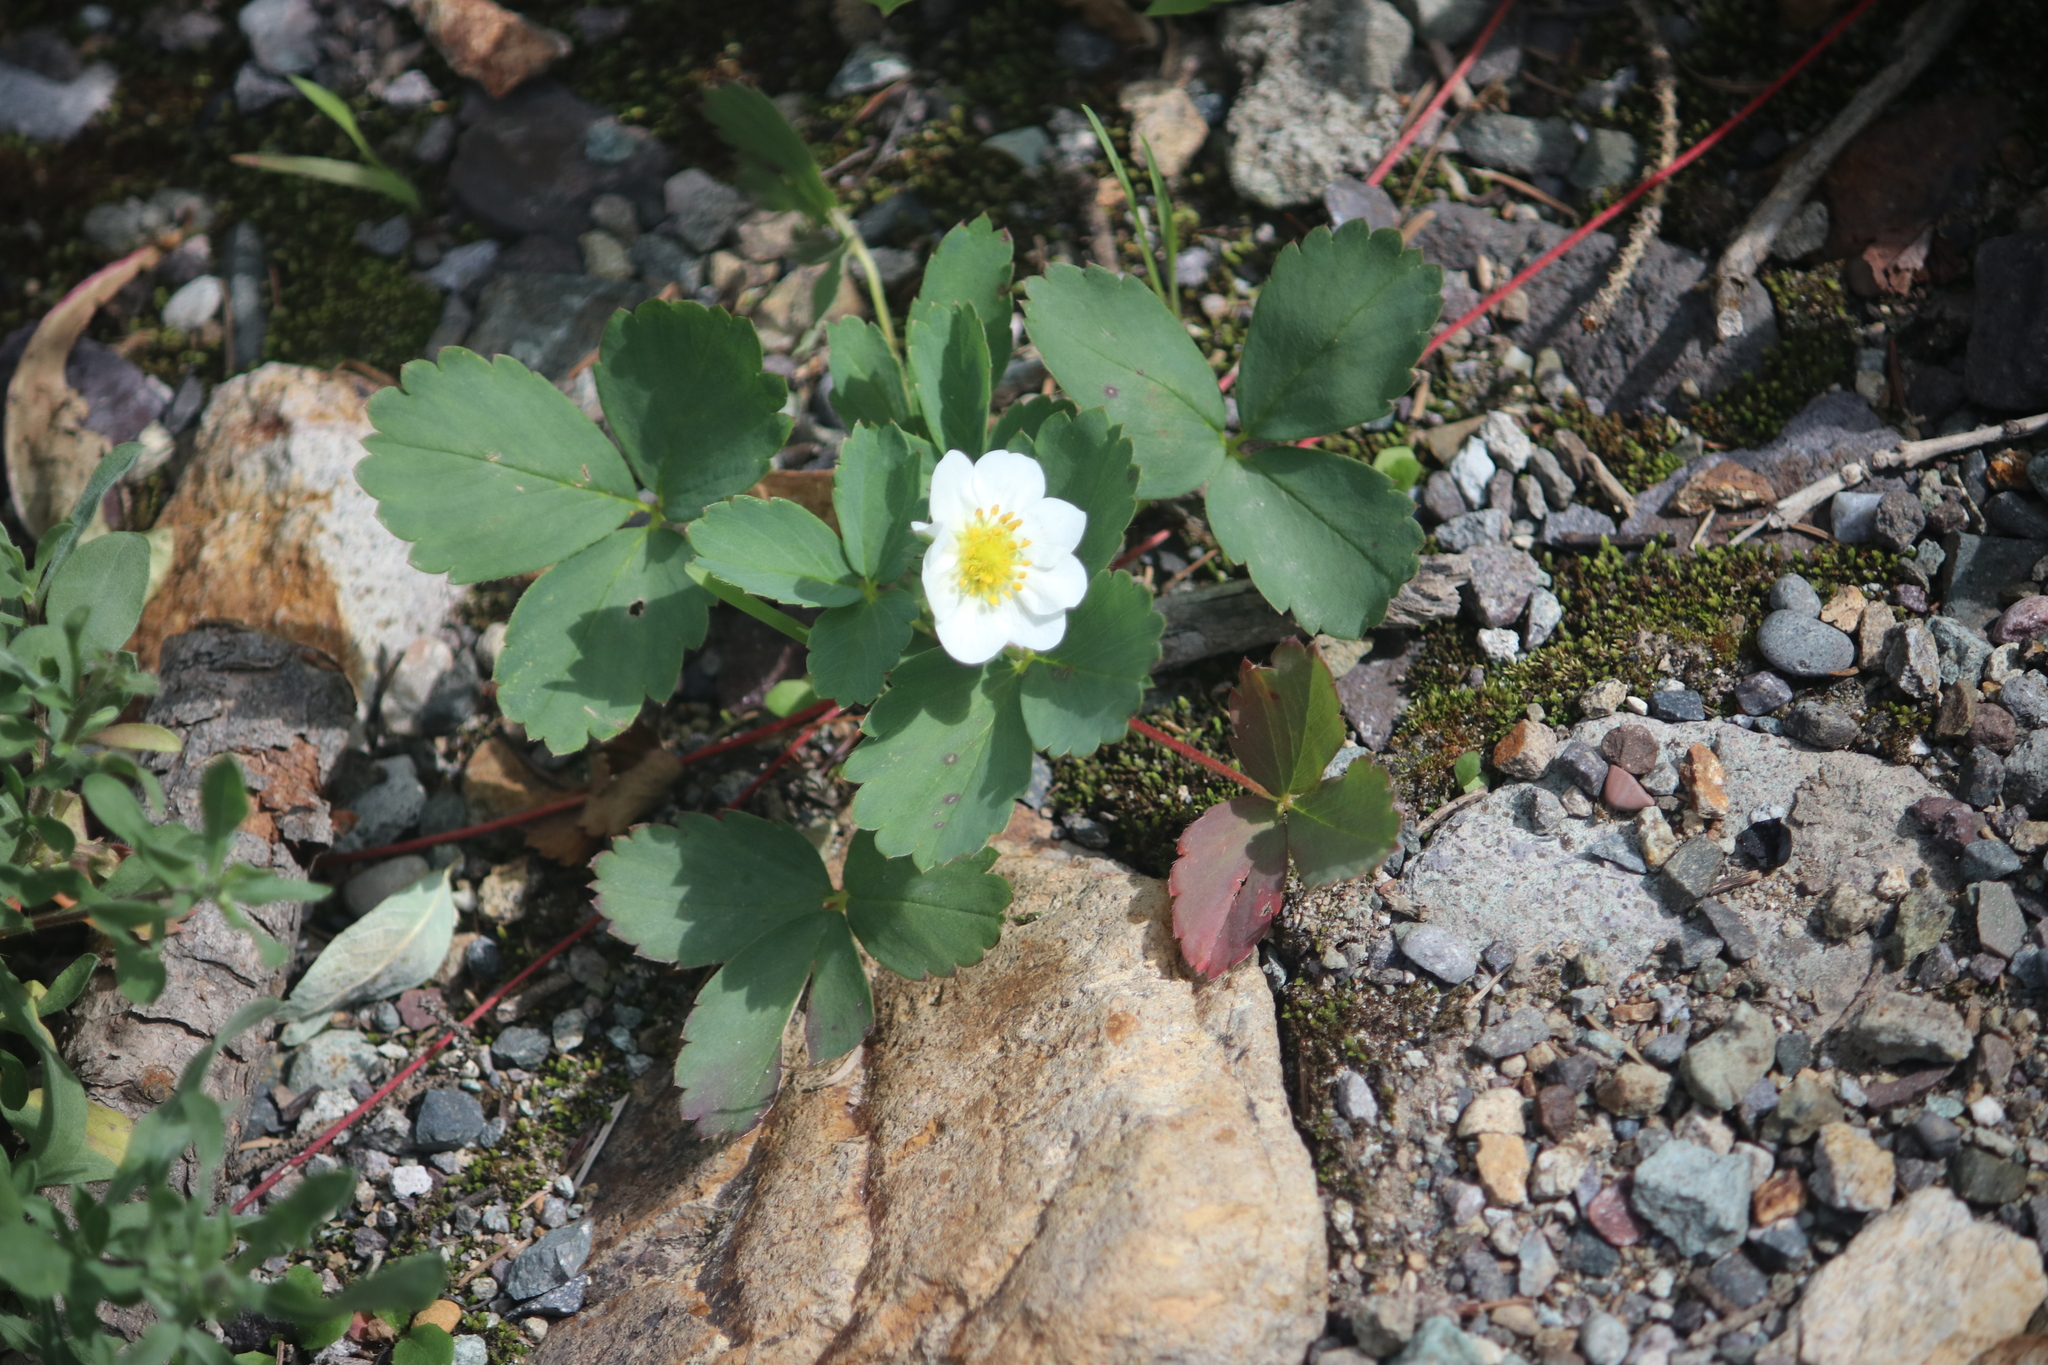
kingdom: Plantae
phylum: Tracheophyta
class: Magnoliopsida
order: Rosales
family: Rosaceae
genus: Fragaria
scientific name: Fragaria virginiana
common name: Thickleaved wild strawberry
